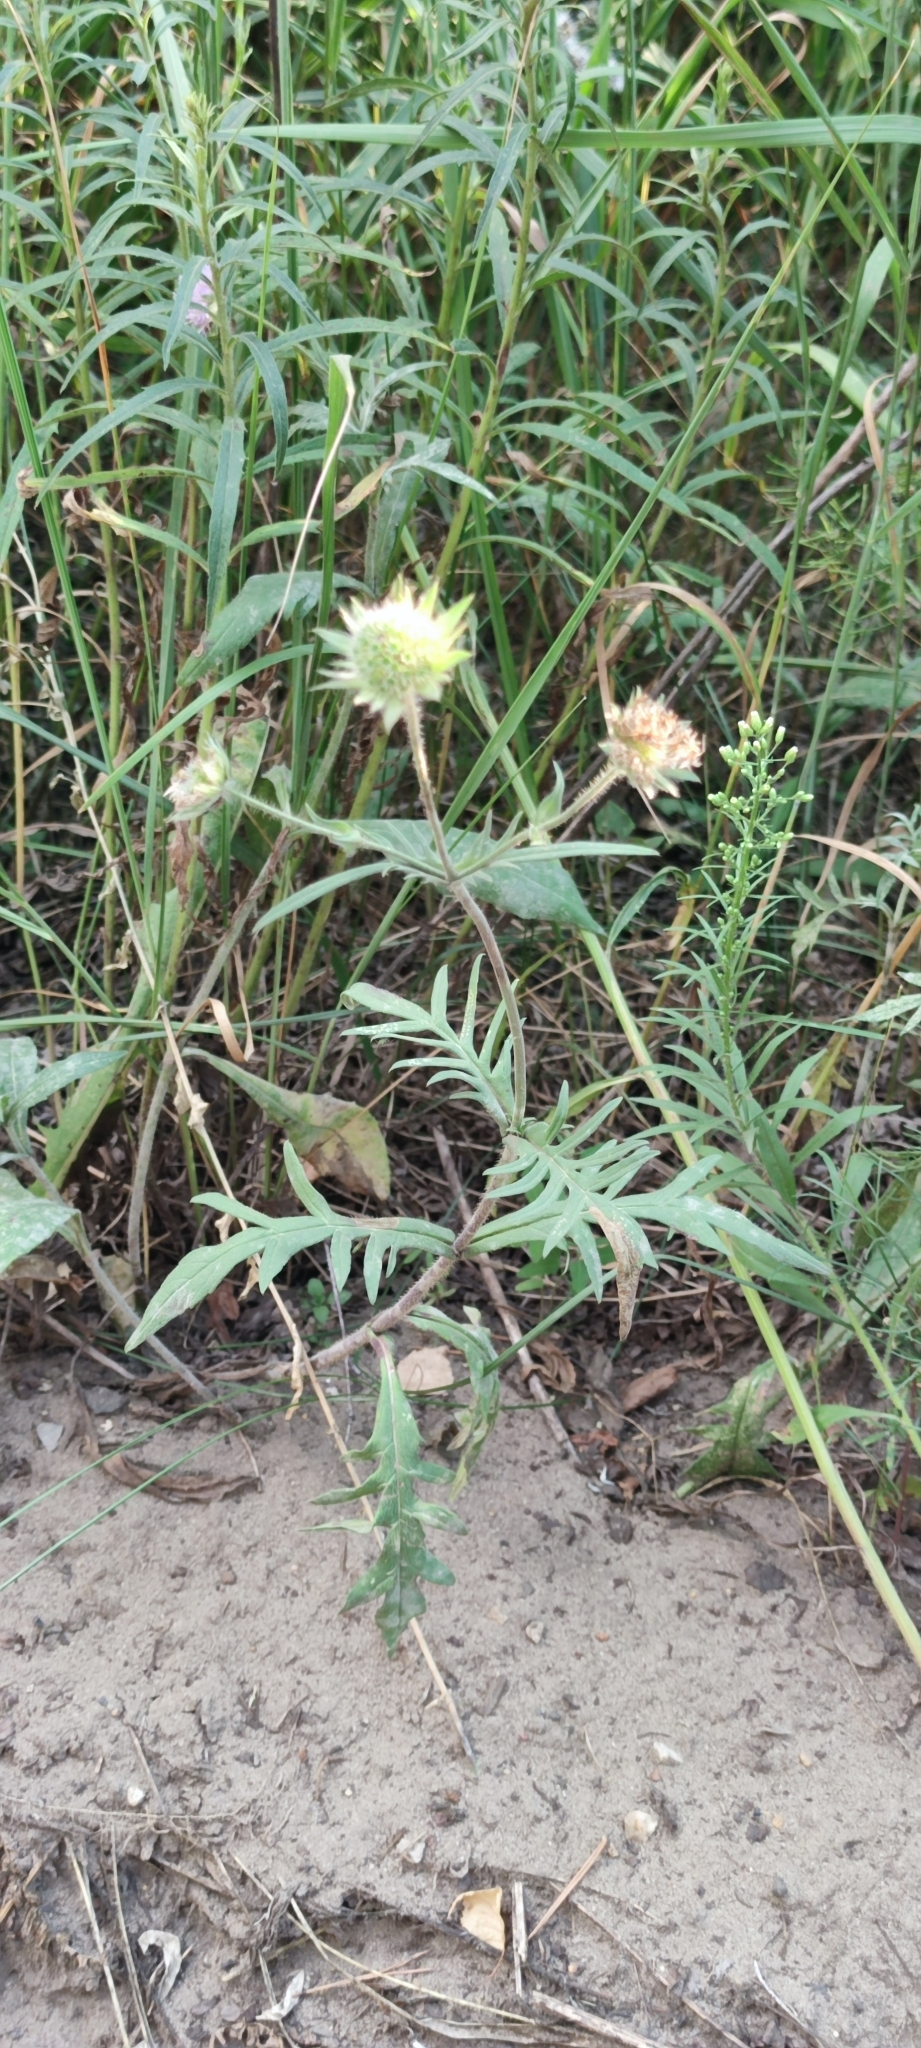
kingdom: Plantae
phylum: Tracheophyta
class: Magnoliopsida
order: Dipsacales
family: Caprifoliaceae
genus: Knautia
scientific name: Knautia arvensis
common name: Field scabiosa
